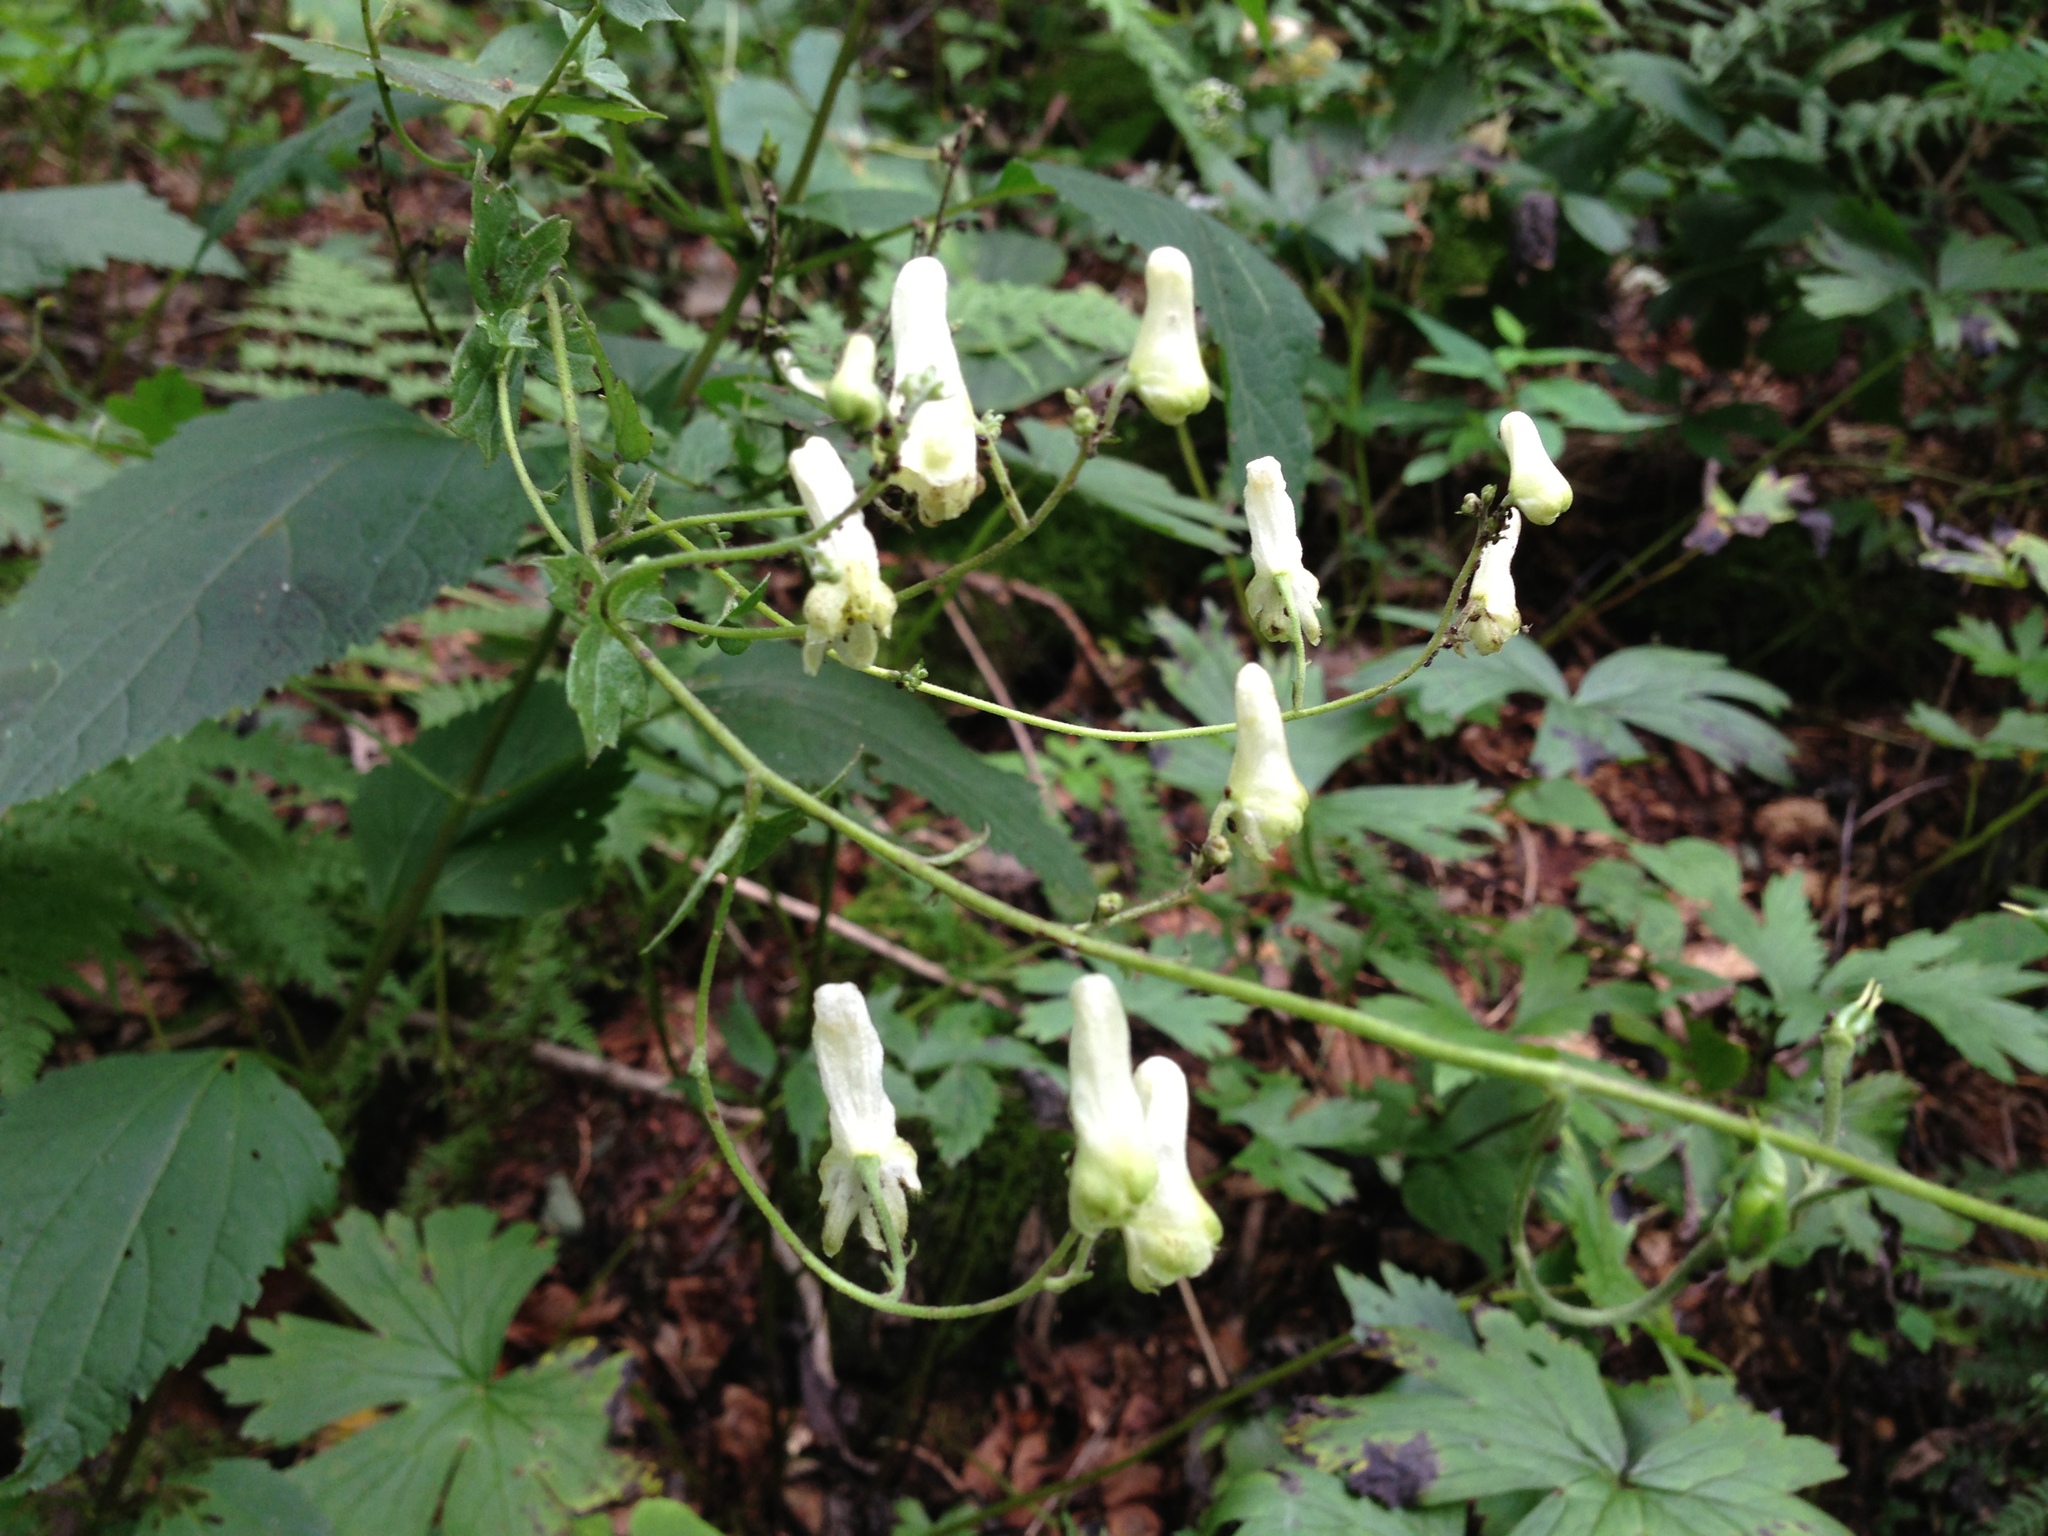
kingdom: Plantae
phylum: Tracheophyta
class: Magnoliopsida
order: Ranunculales
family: Ranunculaceae
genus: Aconitum
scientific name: Aconitum reclinatum
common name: Trailing wolfsbane
